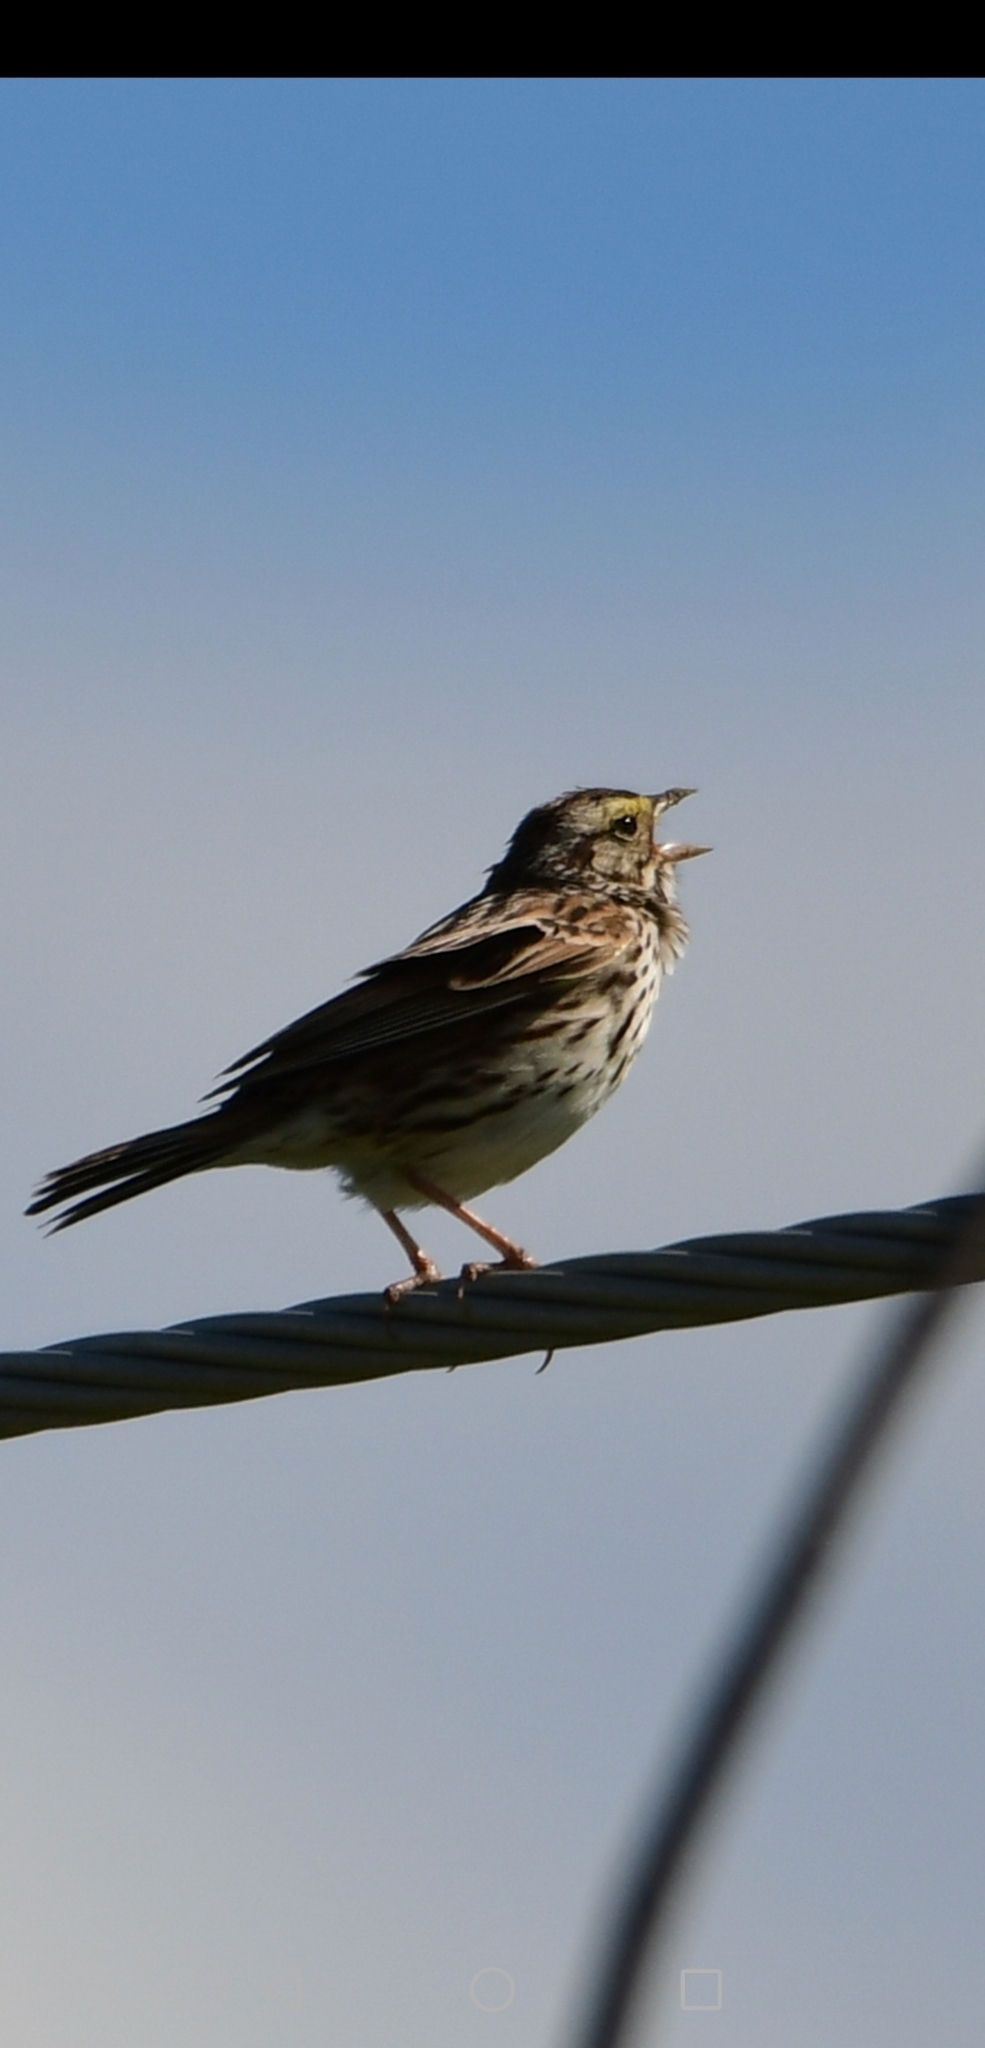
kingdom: Animalia
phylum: Chordata
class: Aves
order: Passeriformes
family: Passerellidae
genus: Passerculus
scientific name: Passerculus sandwichensis
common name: Savannah sparrow
